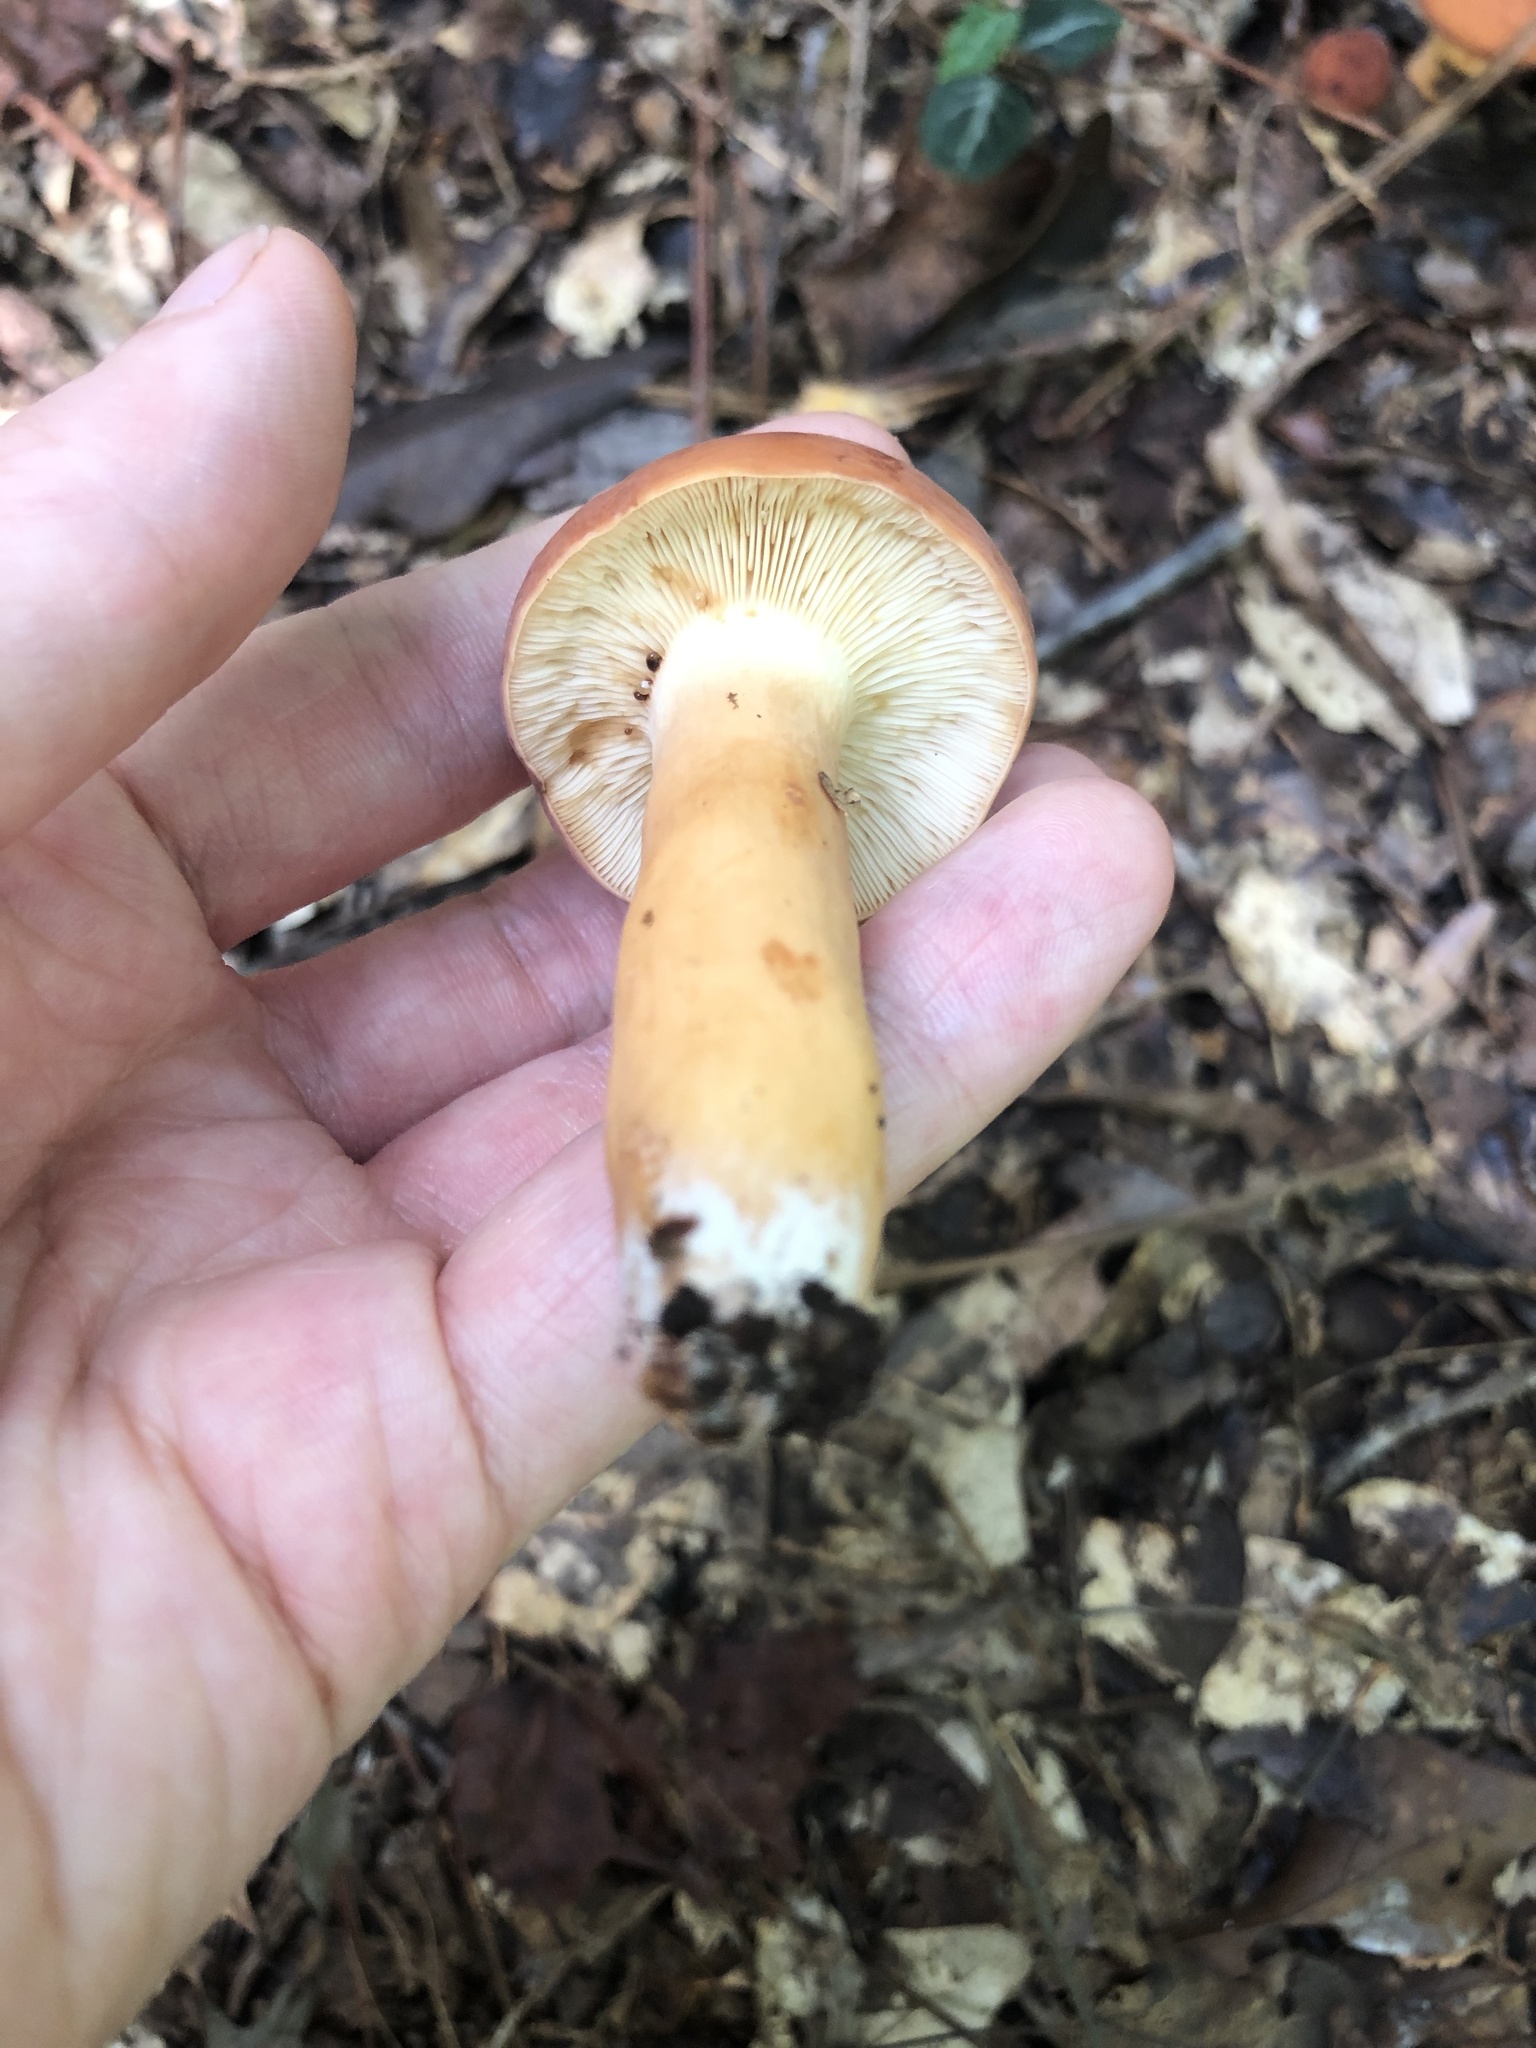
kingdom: Fungi
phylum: Basidiomycota
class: Agaricomycetes
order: Russulales
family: Russulaceae
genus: Lactifluus
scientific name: Lactifluus volemus
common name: Fishy milkcap
